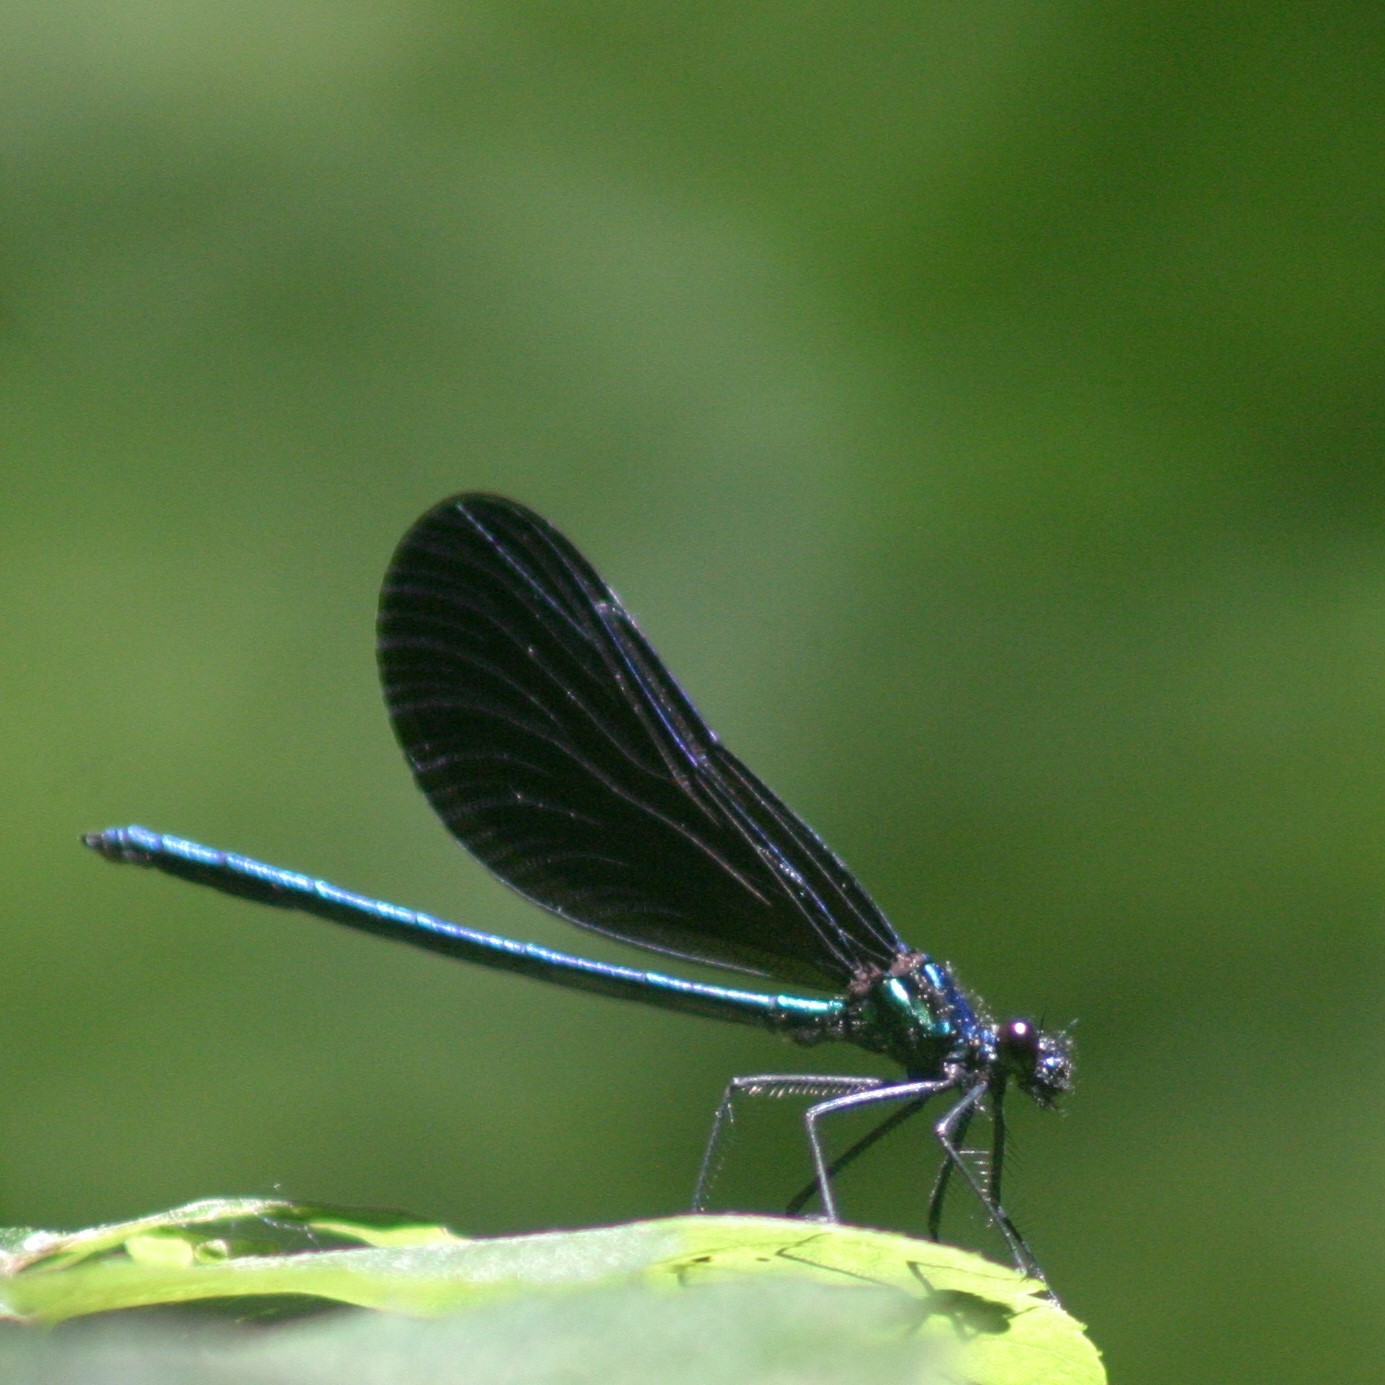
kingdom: Animalia
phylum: Arthropoda
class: Insecta
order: Odonata
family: Calopterygidae
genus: Calopteryx
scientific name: Calopteryx maculata
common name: Ebony jewelwing
